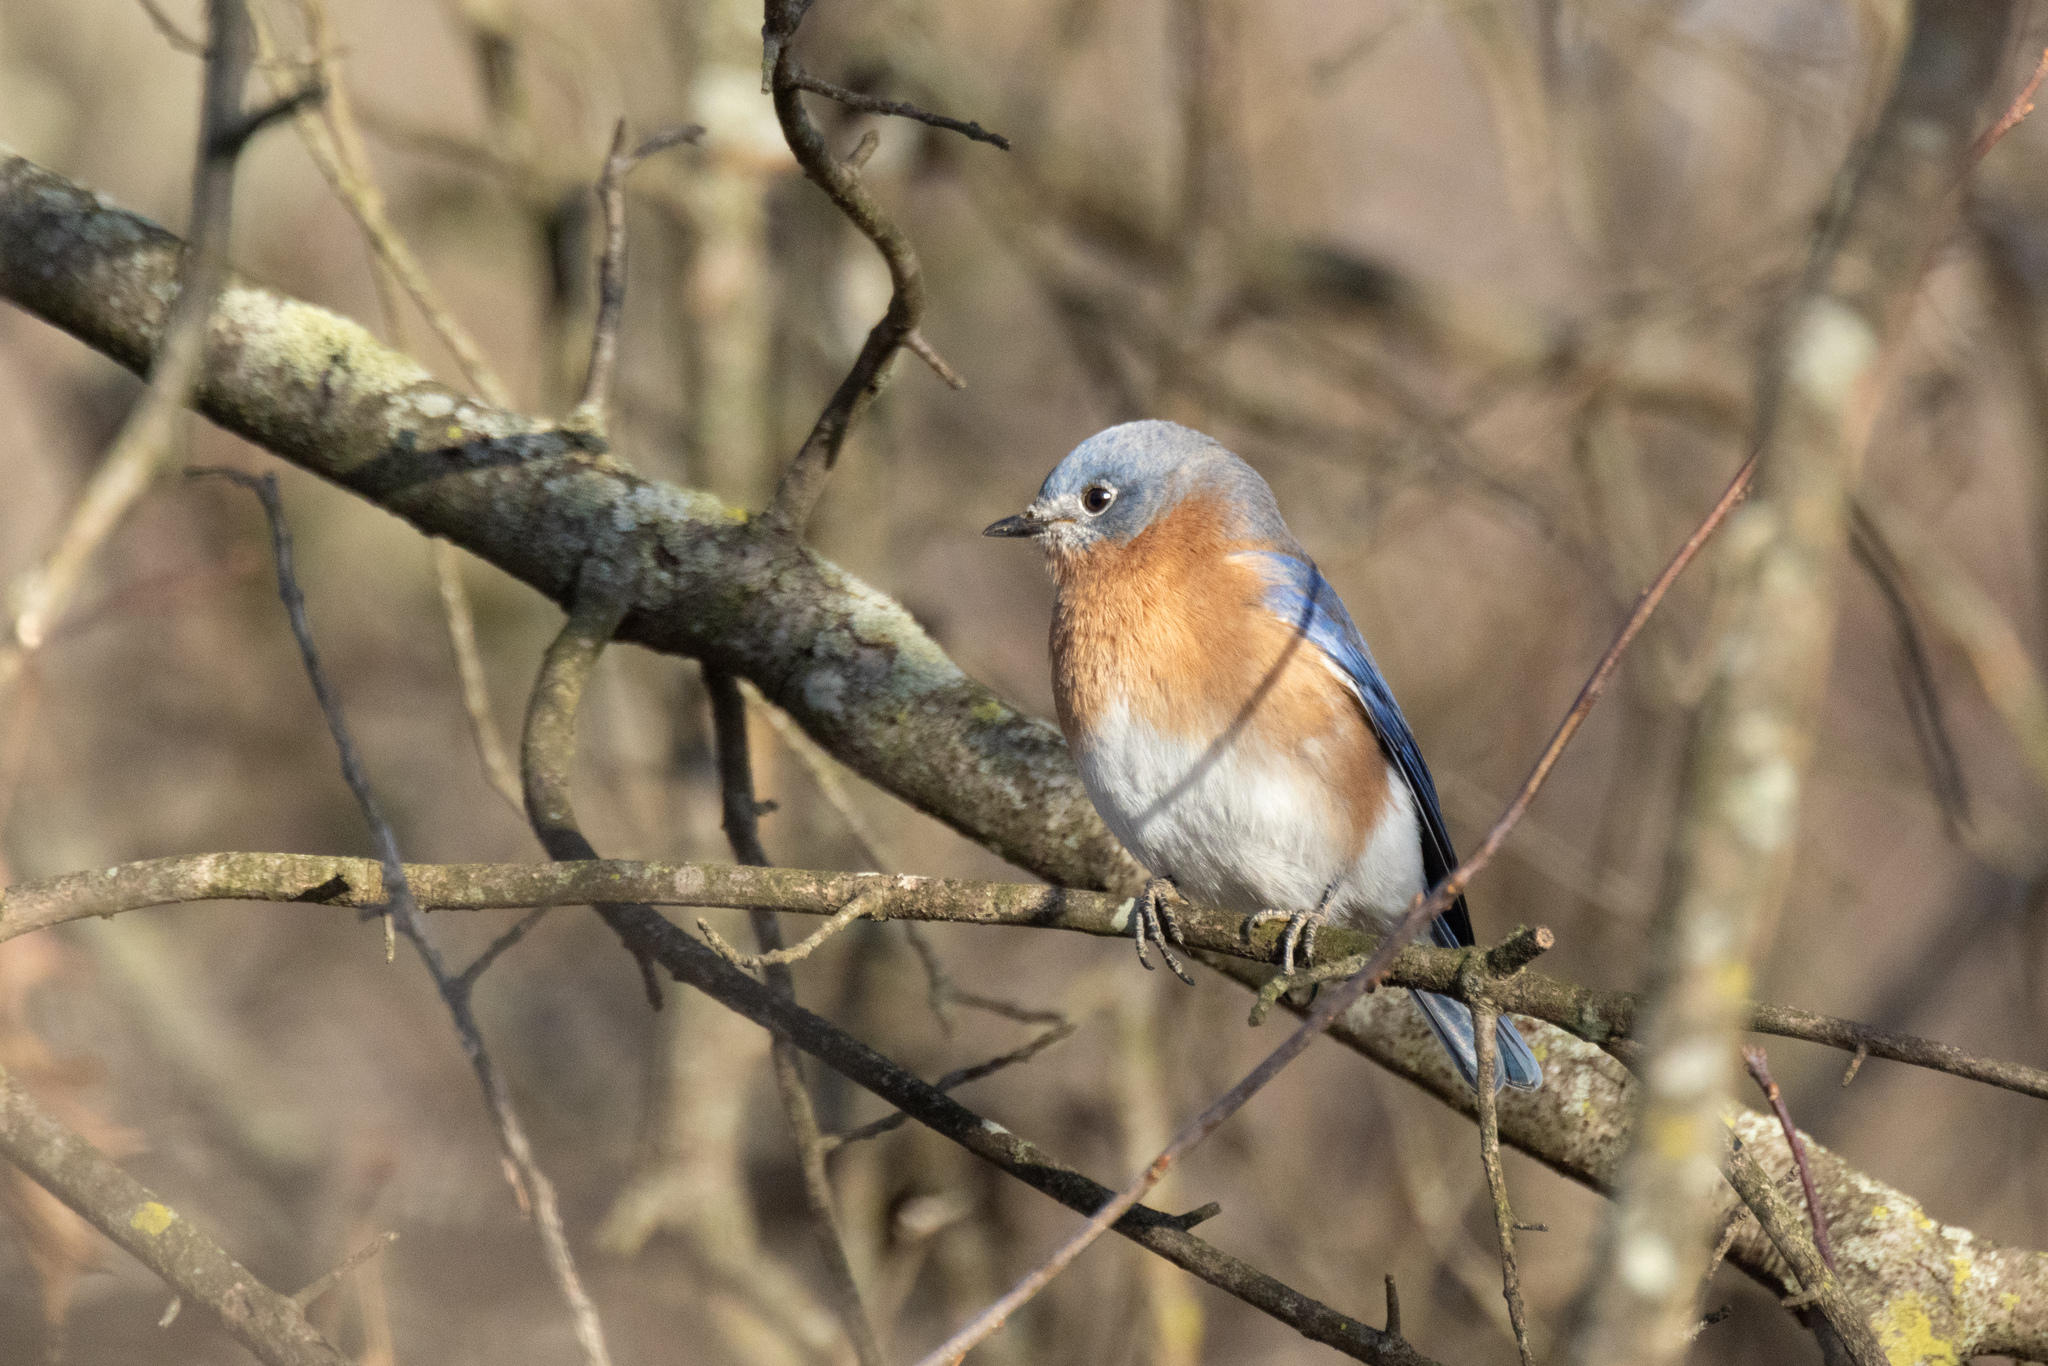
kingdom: Animalia
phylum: Chordata
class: Aves
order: Passeriformes
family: Turdidae
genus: Sialia
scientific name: Sialia sialis
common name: Eastern bluebird
